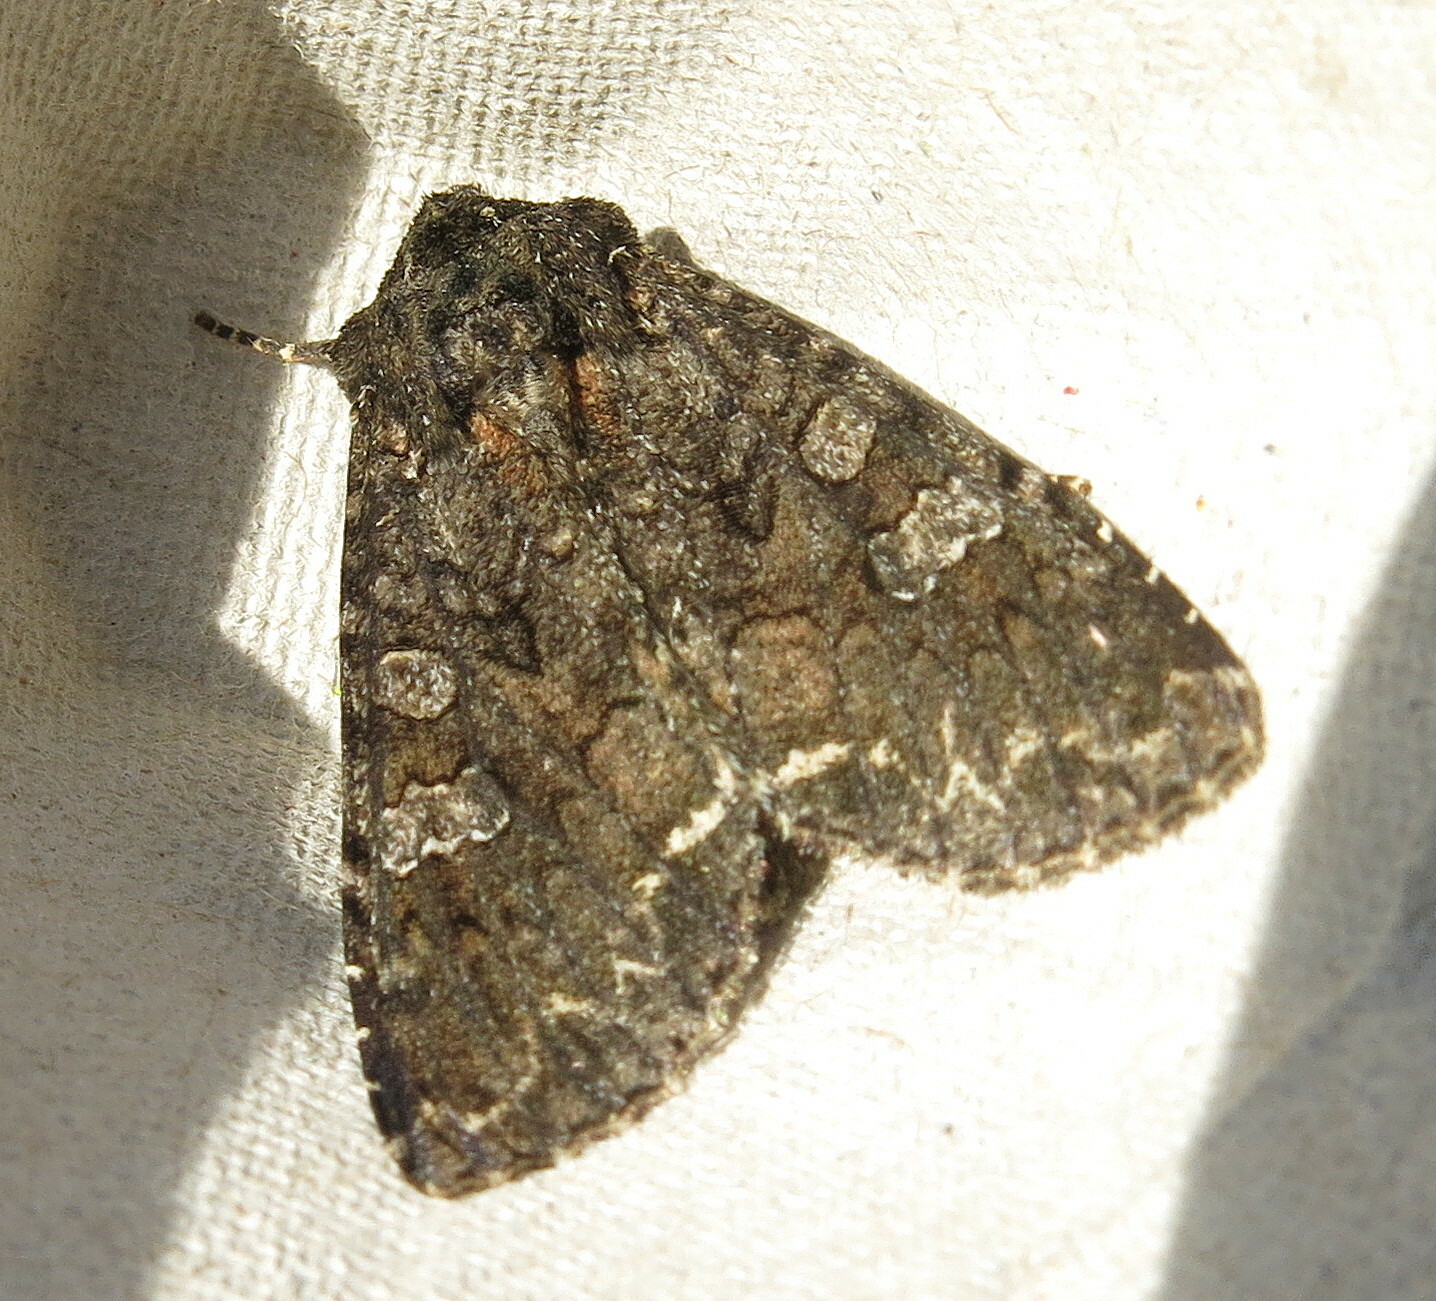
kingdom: Animalia
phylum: Arthropoda
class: Insecta
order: Lepidoptera
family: Noctuidae
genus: Mamestra
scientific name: Mamestra brassicae
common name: Cabbage moth
